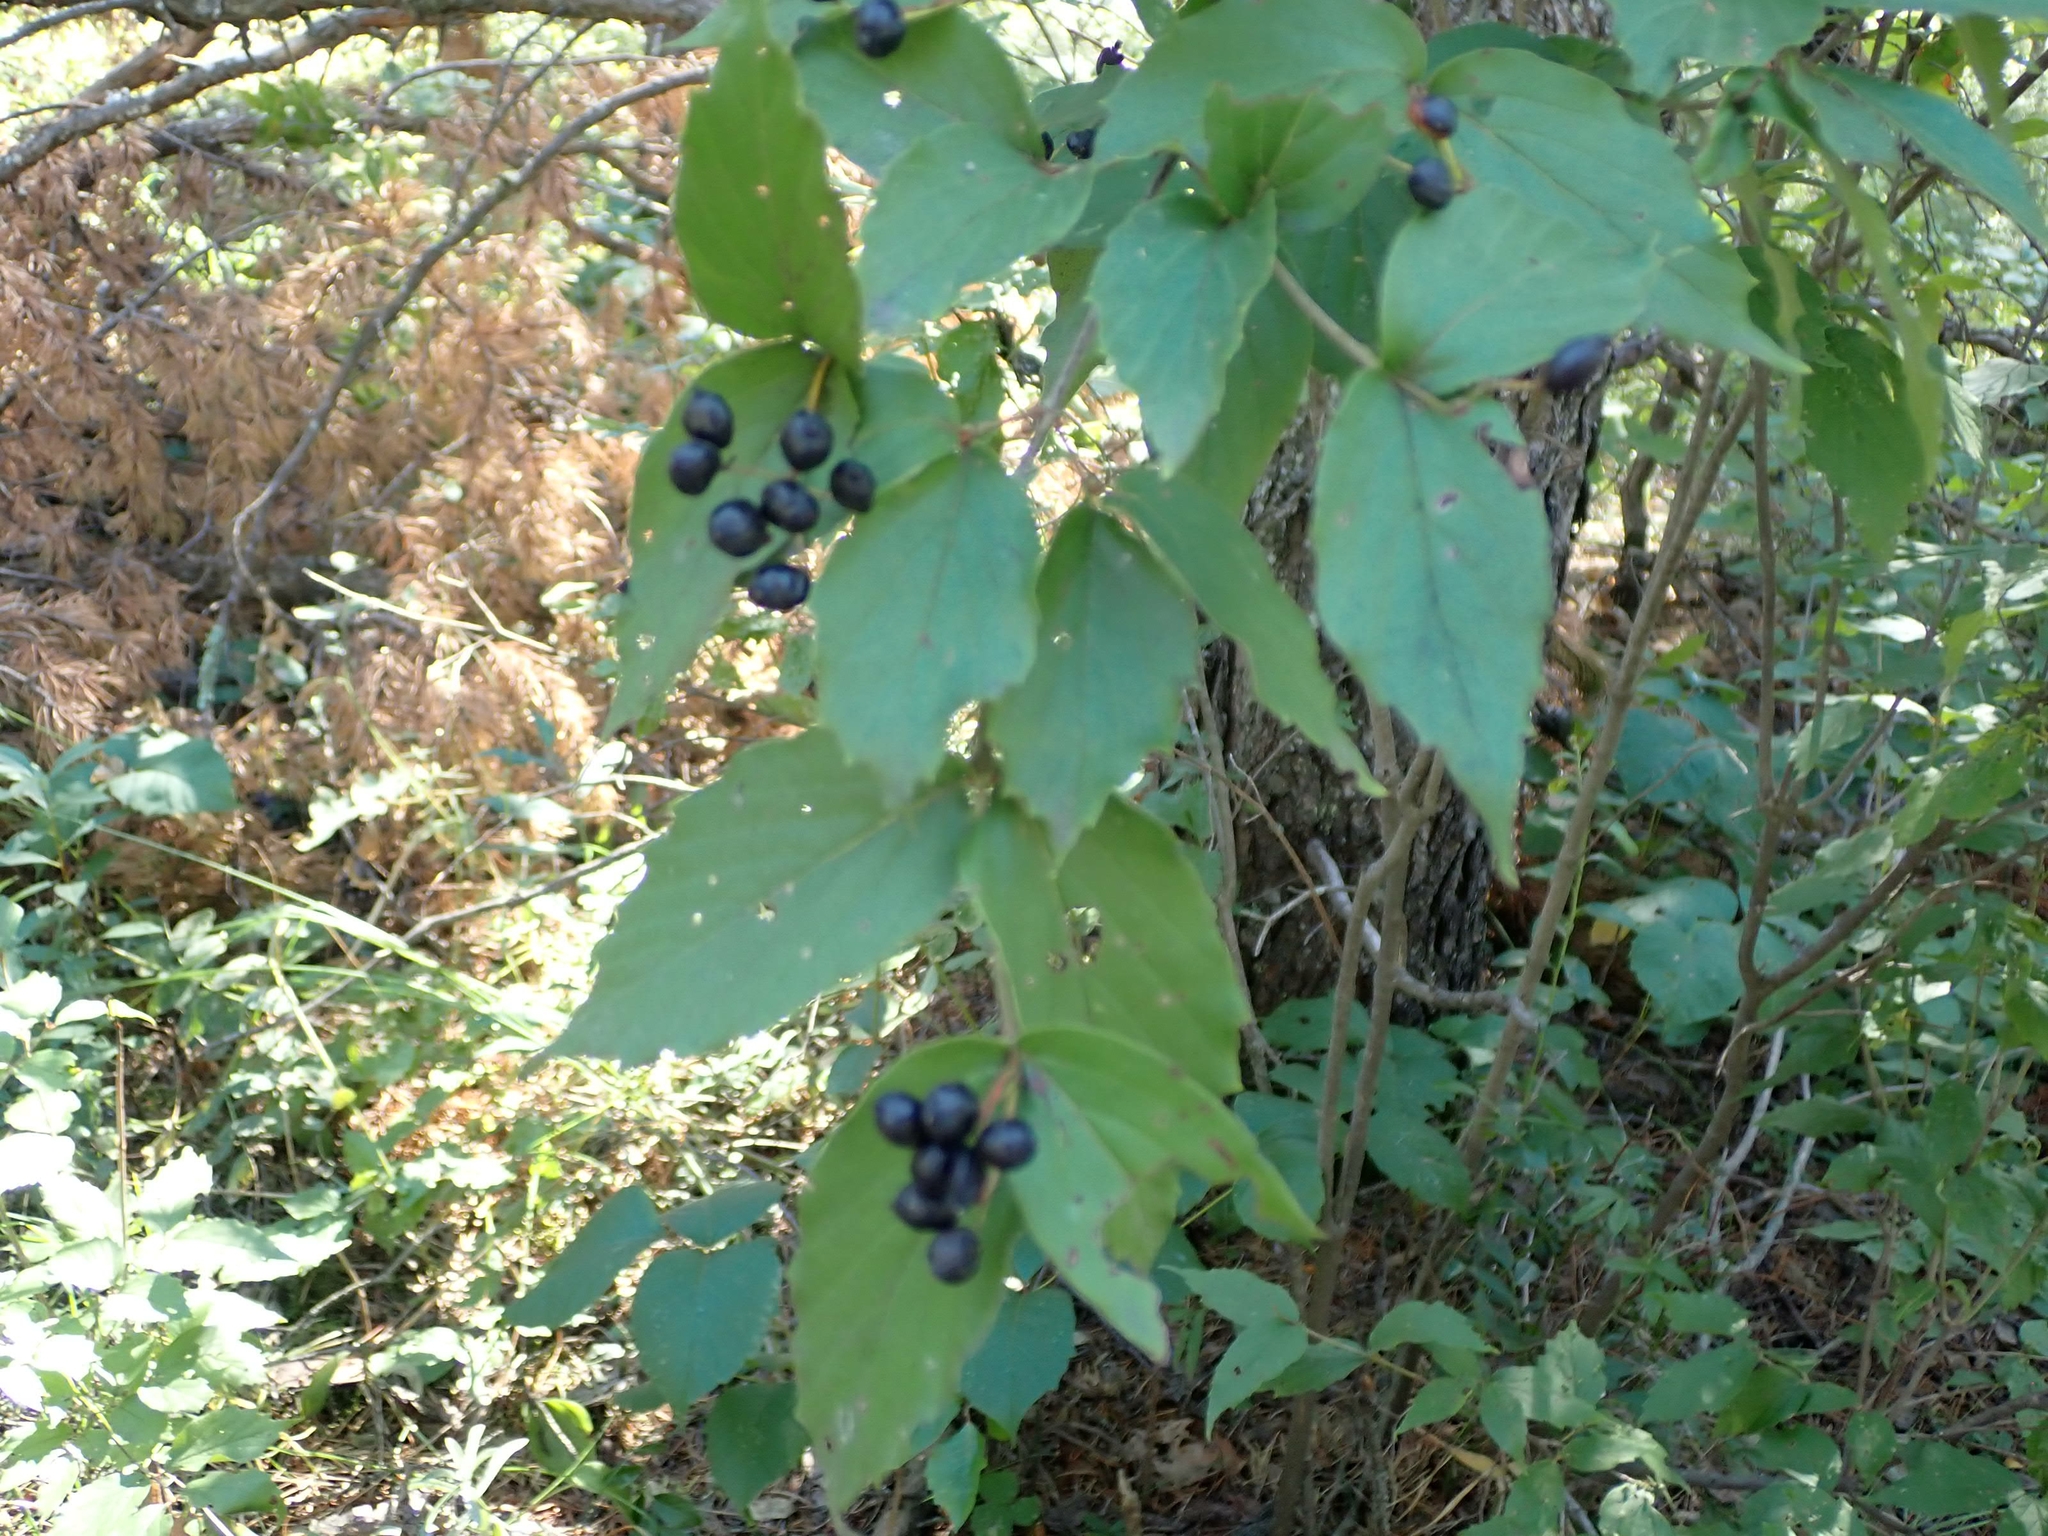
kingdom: Plantae
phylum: Tracheophyta
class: Magnoliopsida
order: Dipsacales
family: Viburnaceae
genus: Viburnum
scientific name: Viburnum rafinesqueanum
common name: Downy arrow-wood
